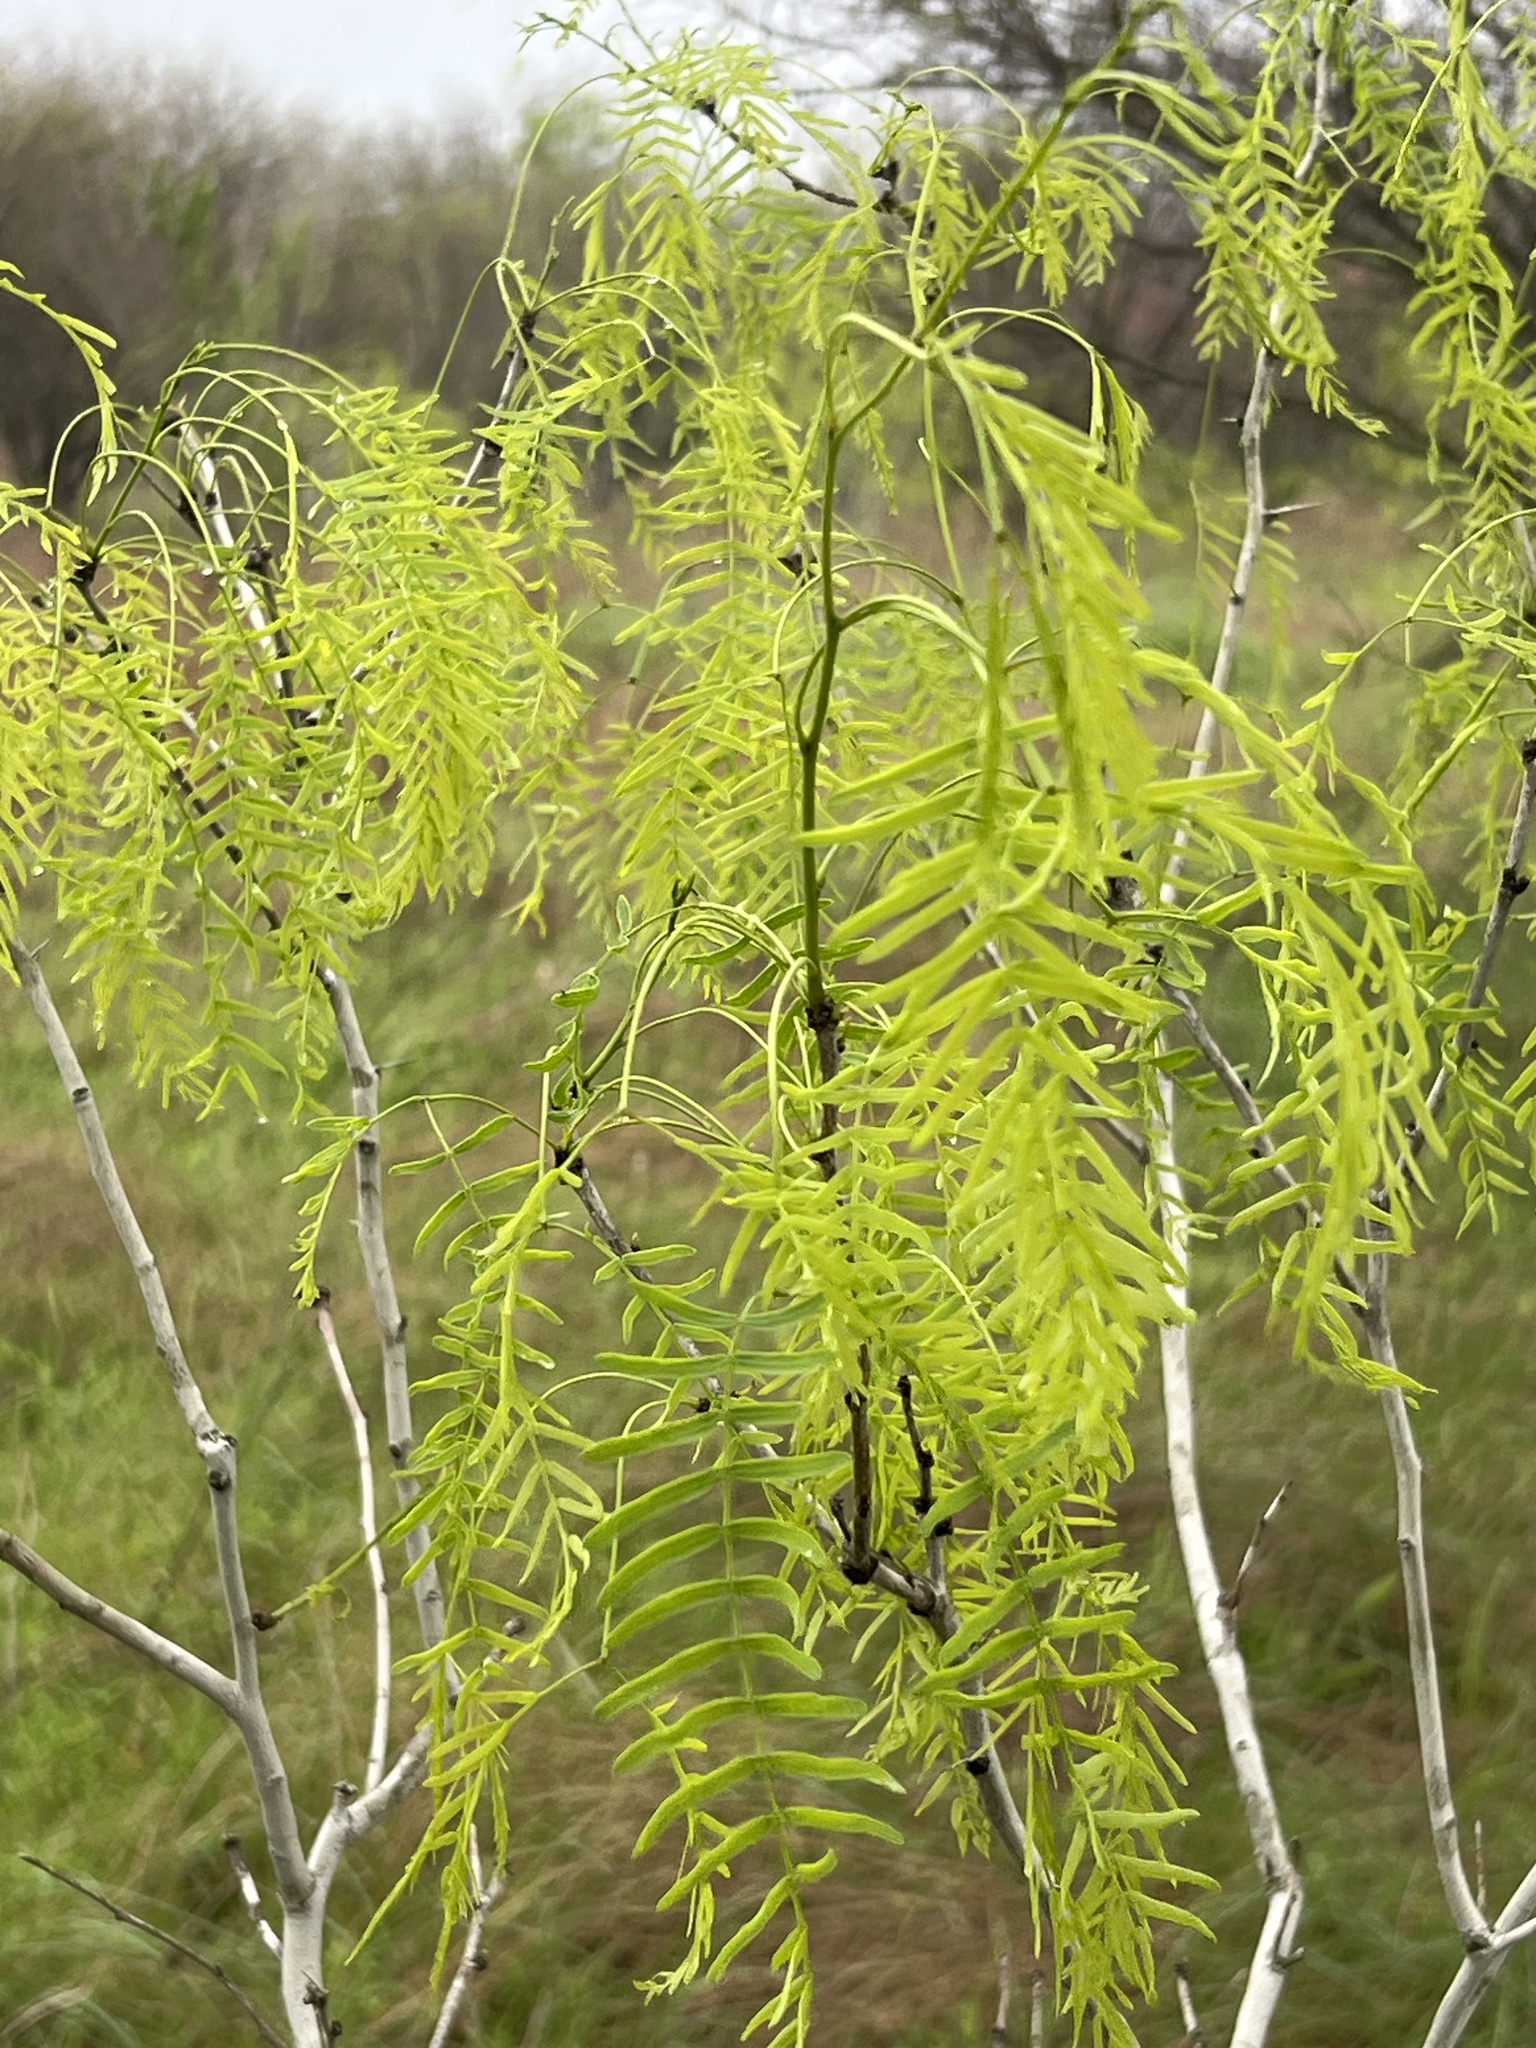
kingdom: Plantae
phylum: Tracheophyta
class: Magnoliopsida
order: Fabales
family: Fabaceae
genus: Prosopis
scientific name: Prosopis glandulosa
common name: Honey mesquite
